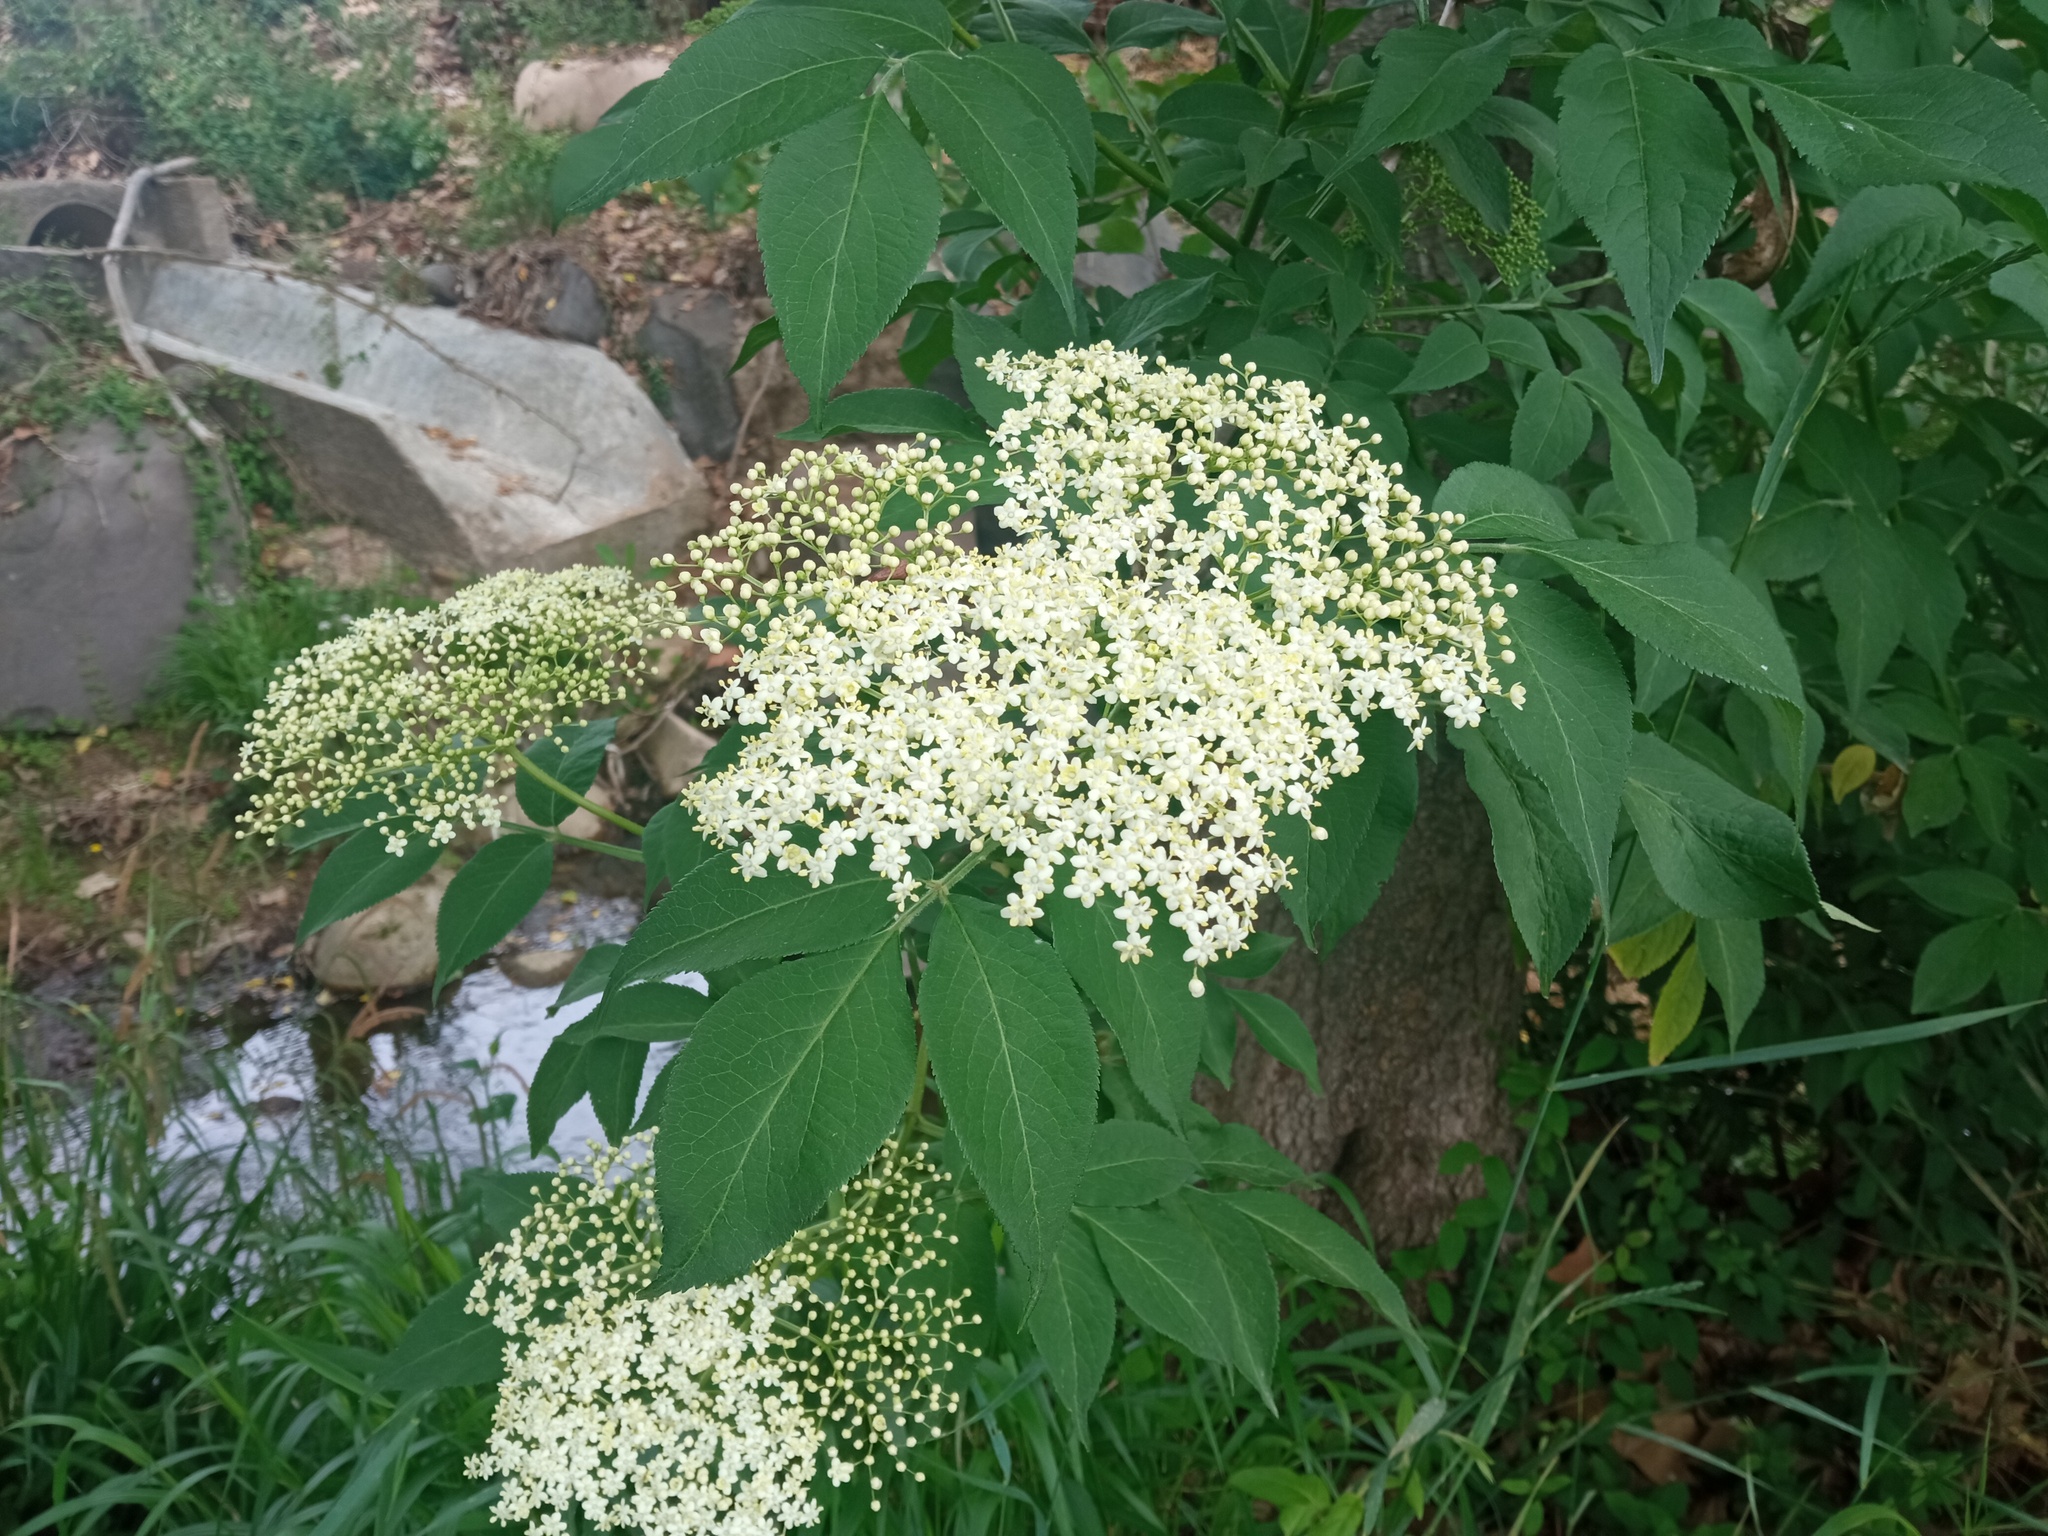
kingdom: Plantae
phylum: Tracheophyta
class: Magnoliopsida
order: Dipsacales
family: Viburnaceae
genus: Sambucus
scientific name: Sambucus nigra
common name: Elder
